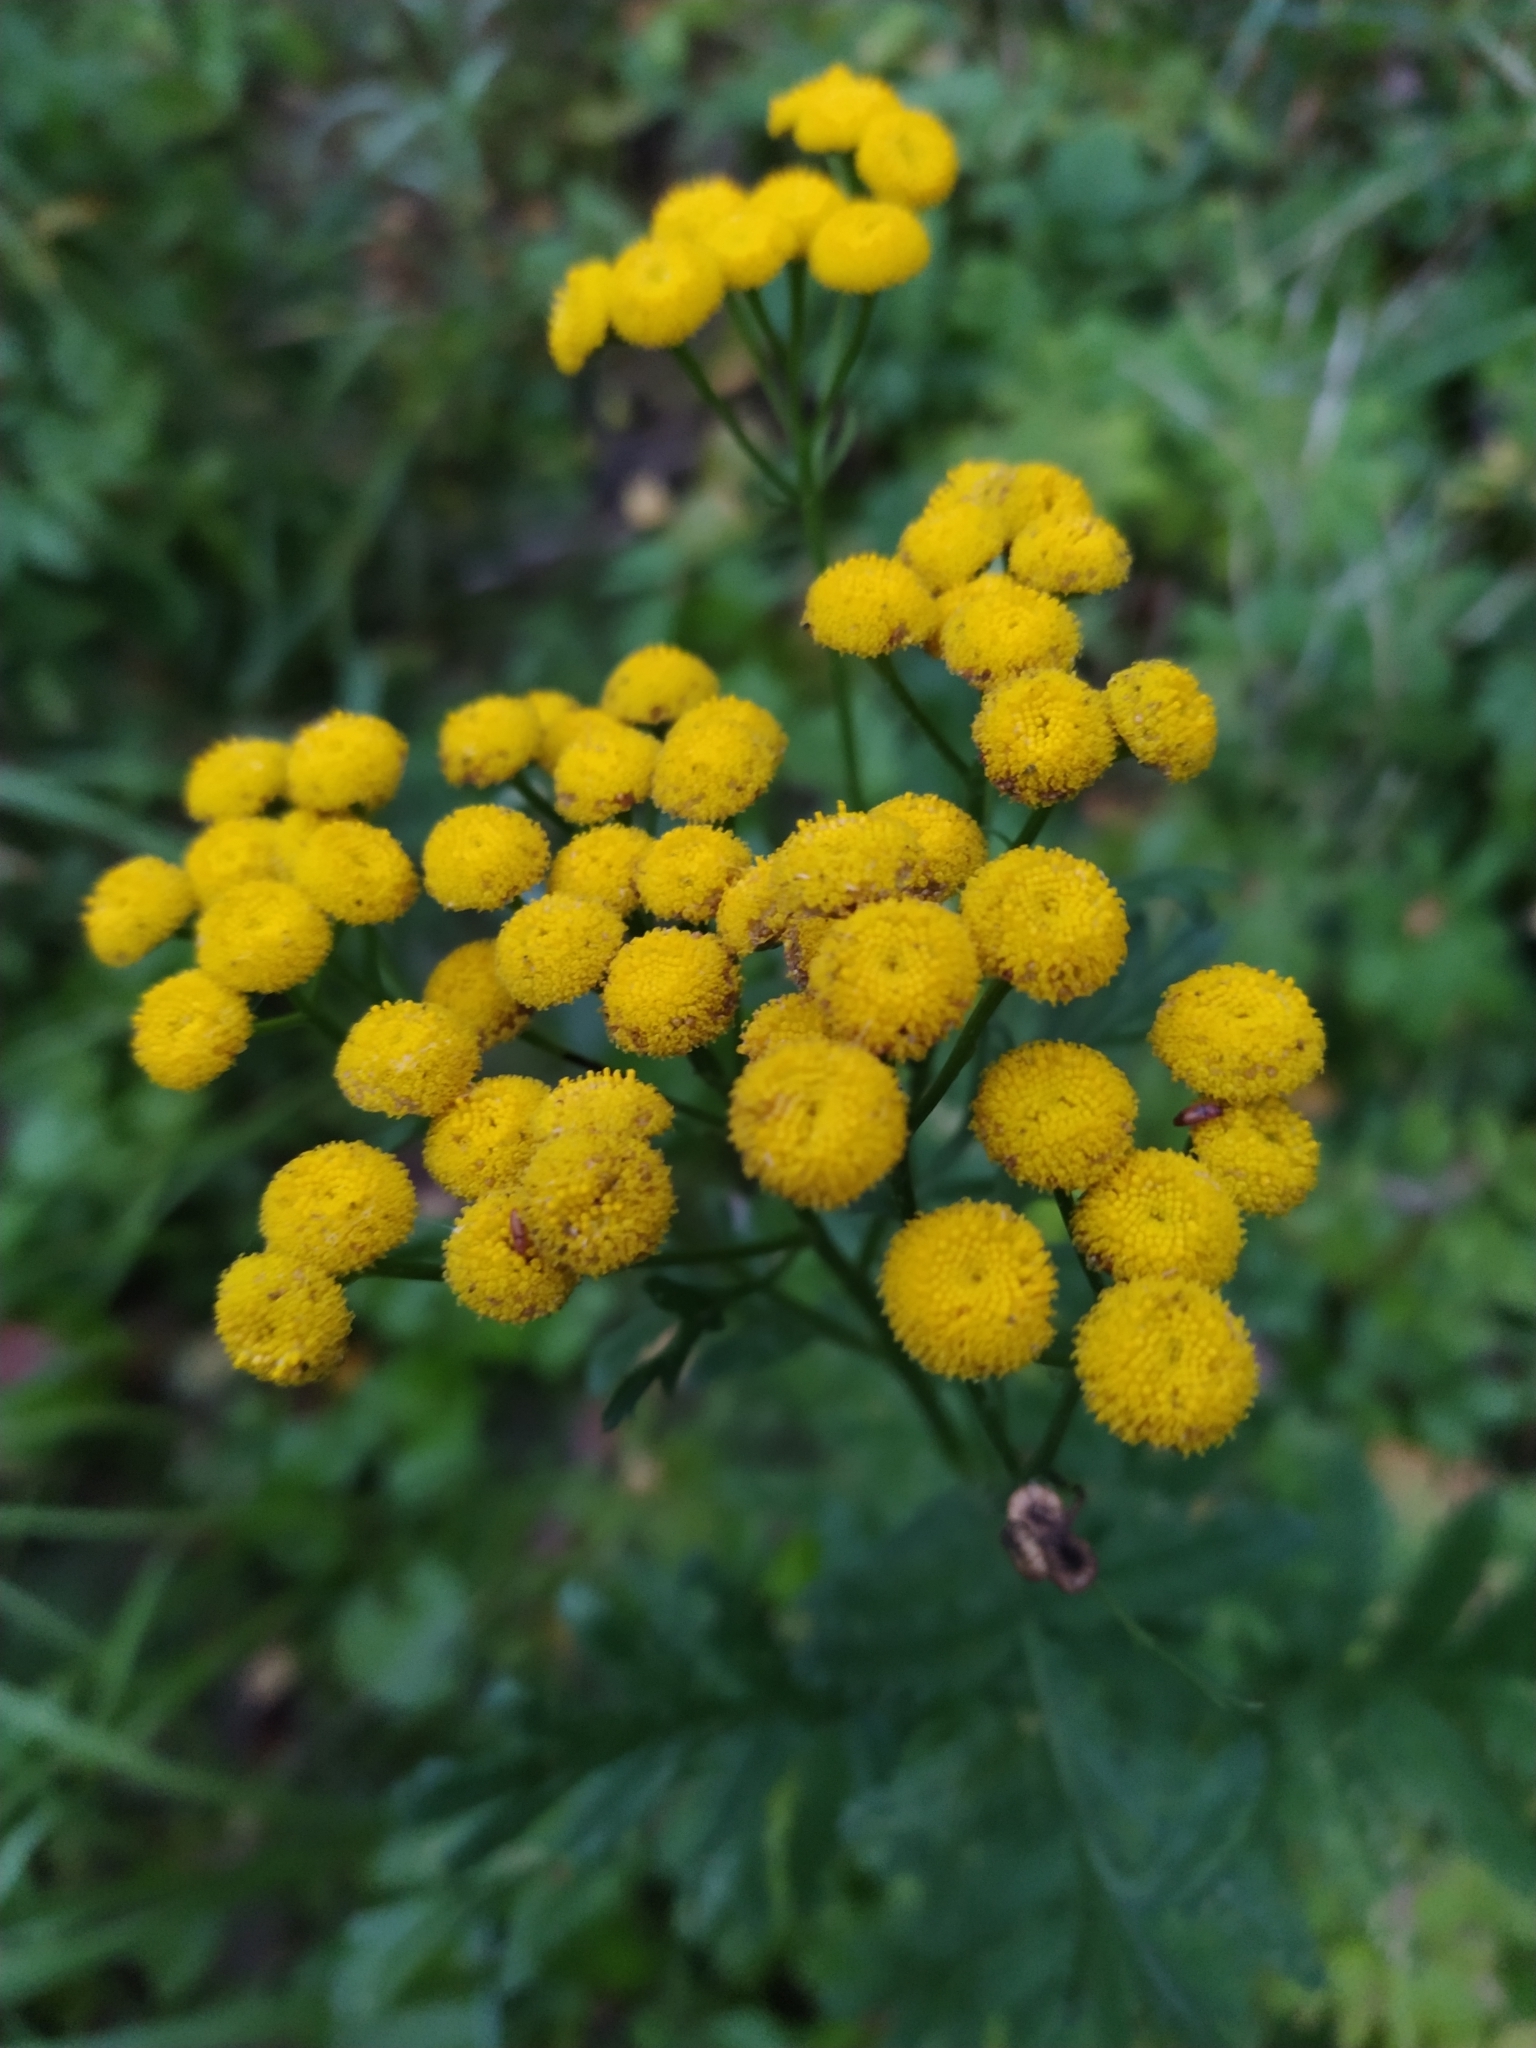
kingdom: Plantae
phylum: Tracheophyta
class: Magnoliopsida
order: Asterales
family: Asteraceae
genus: Tanacetum
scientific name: Tanacetum vulgare
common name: Common tansy
